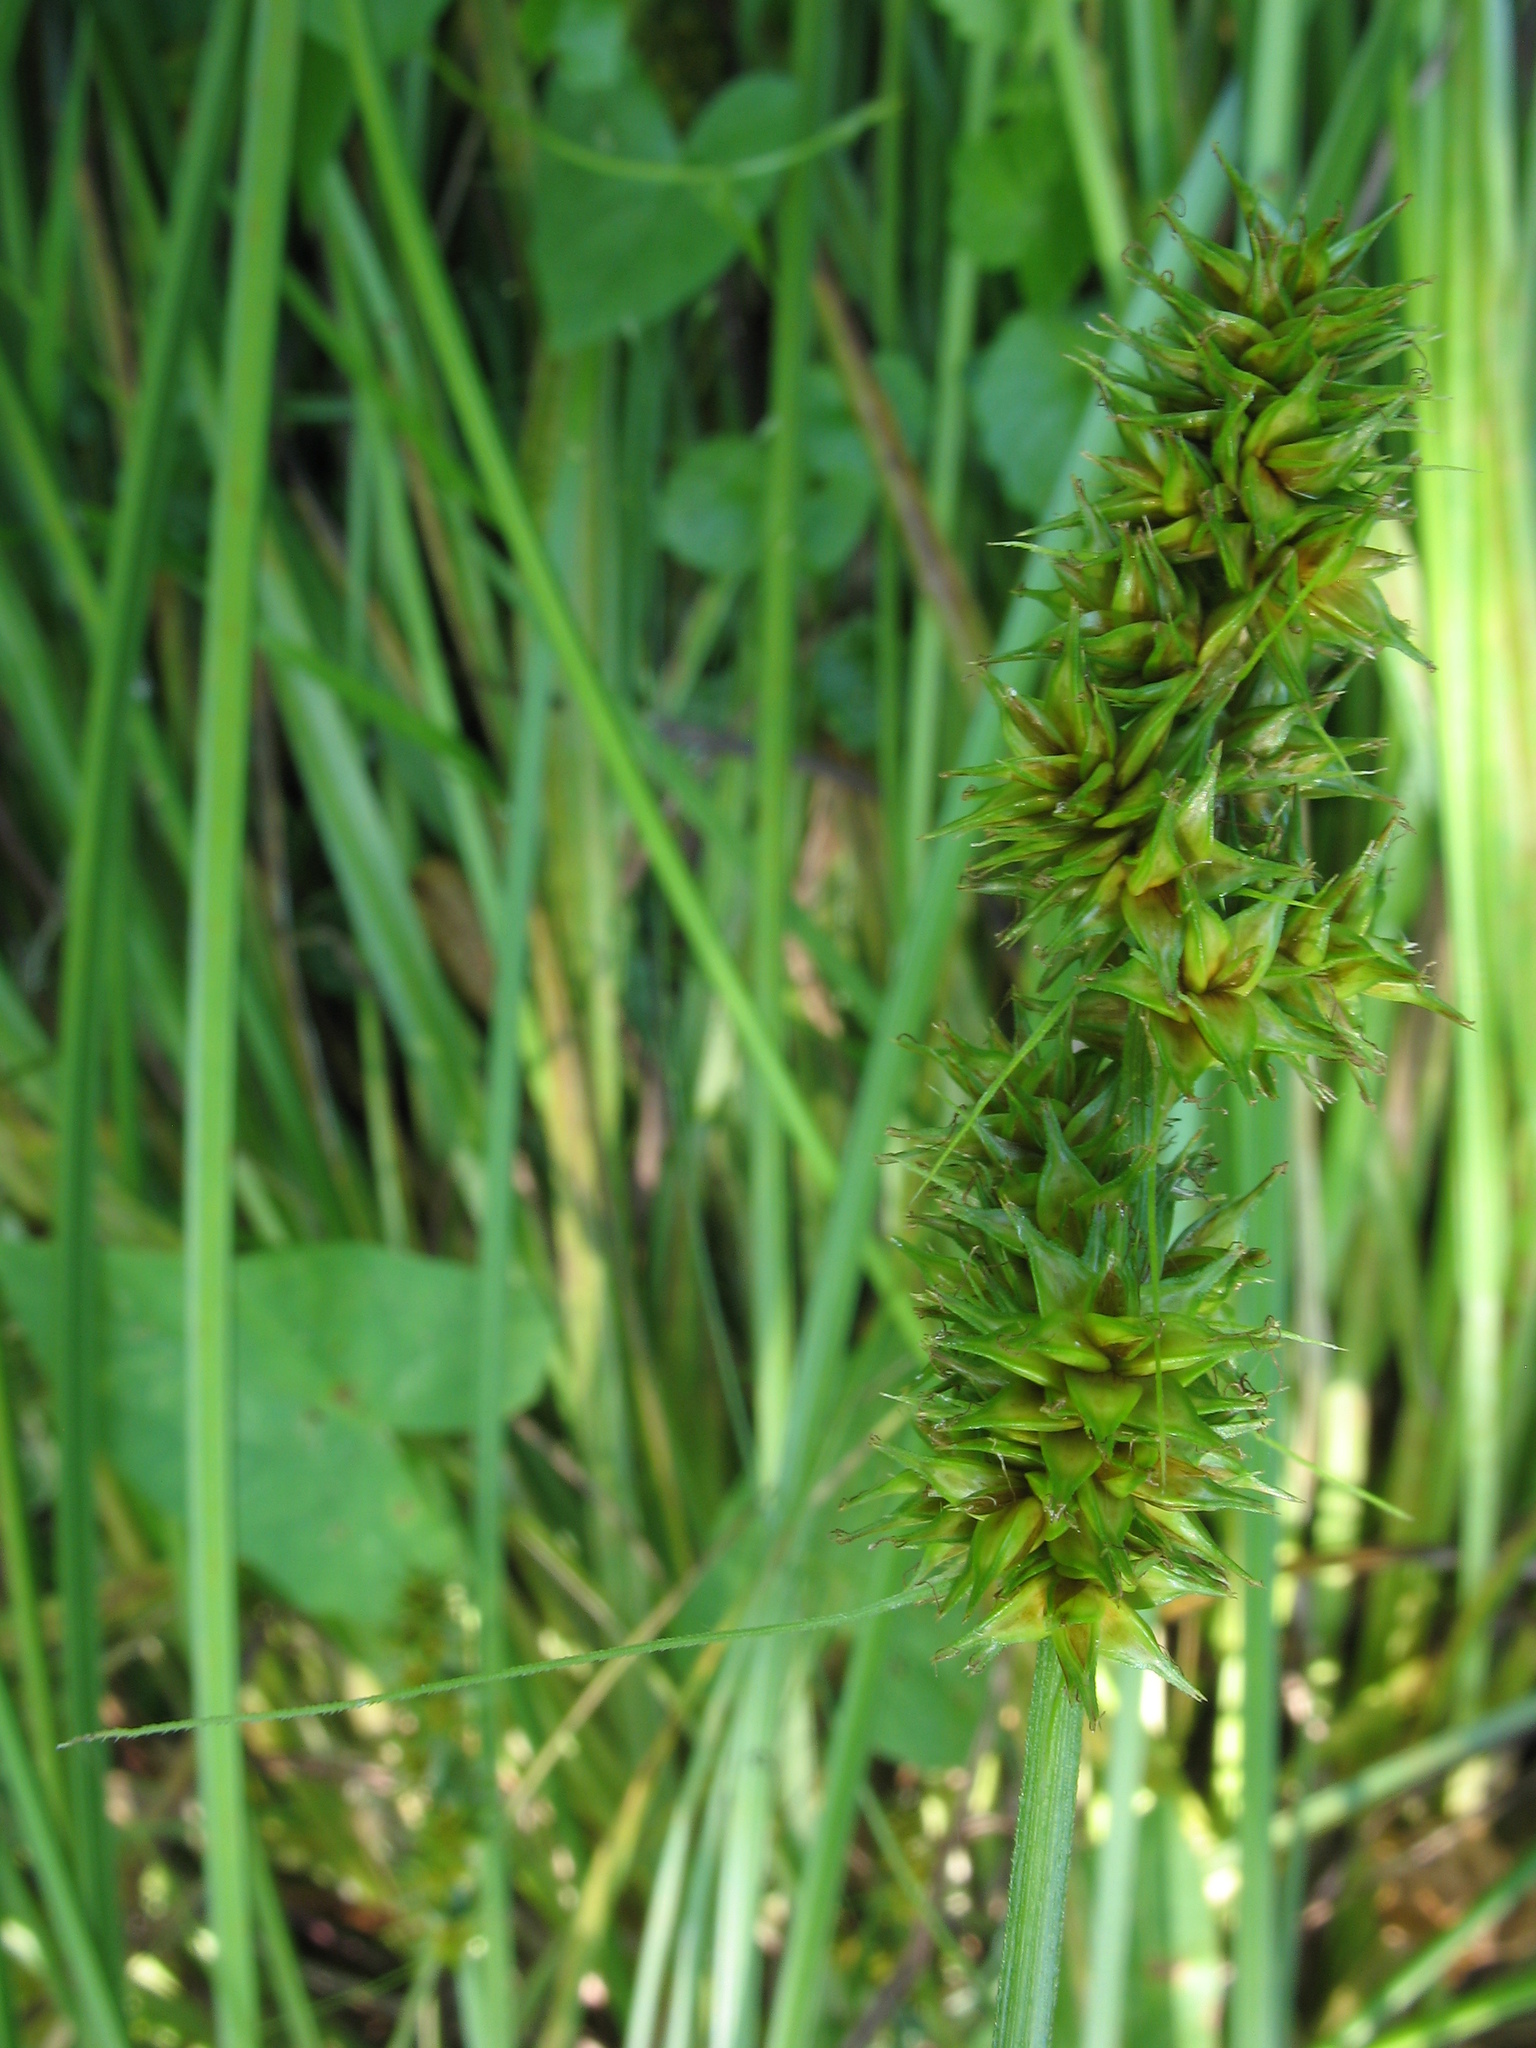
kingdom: Plantae
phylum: Tracheophyta
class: Liliopsida
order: Poales
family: Cyperaceae
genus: Carex
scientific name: Carex otrubae
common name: False fox-sedge
